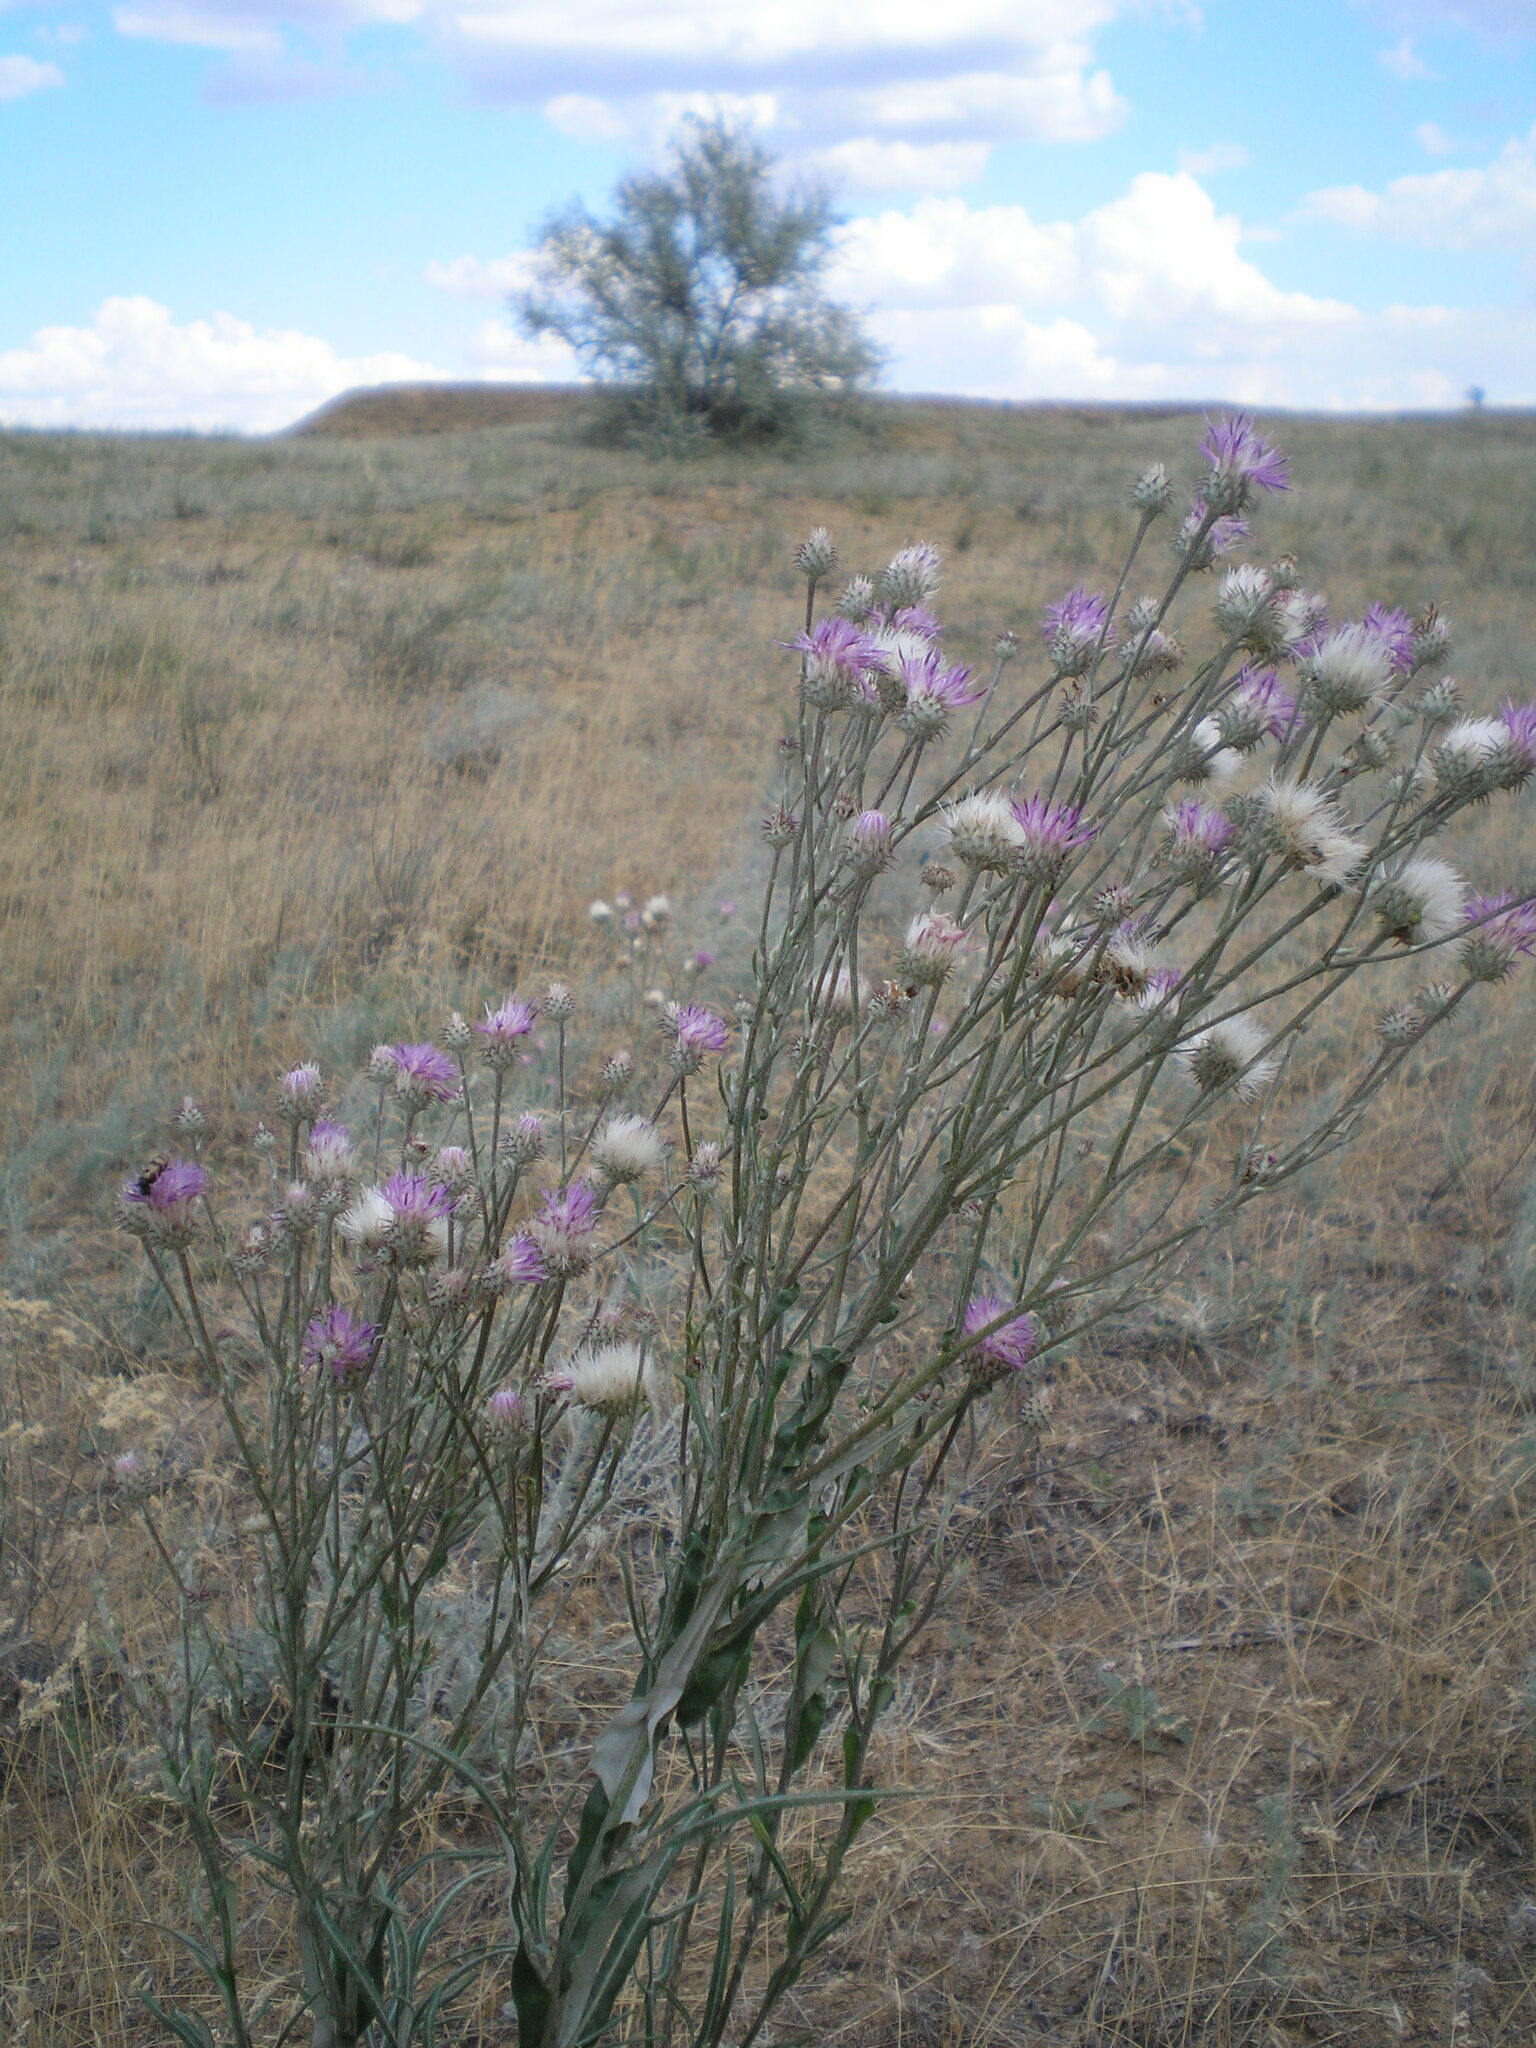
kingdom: Plantae
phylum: Tracheophyta
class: Magnoliopsida
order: Asterales
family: Asteraceae
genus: Jurinea
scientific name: Jurinea polyclonos
